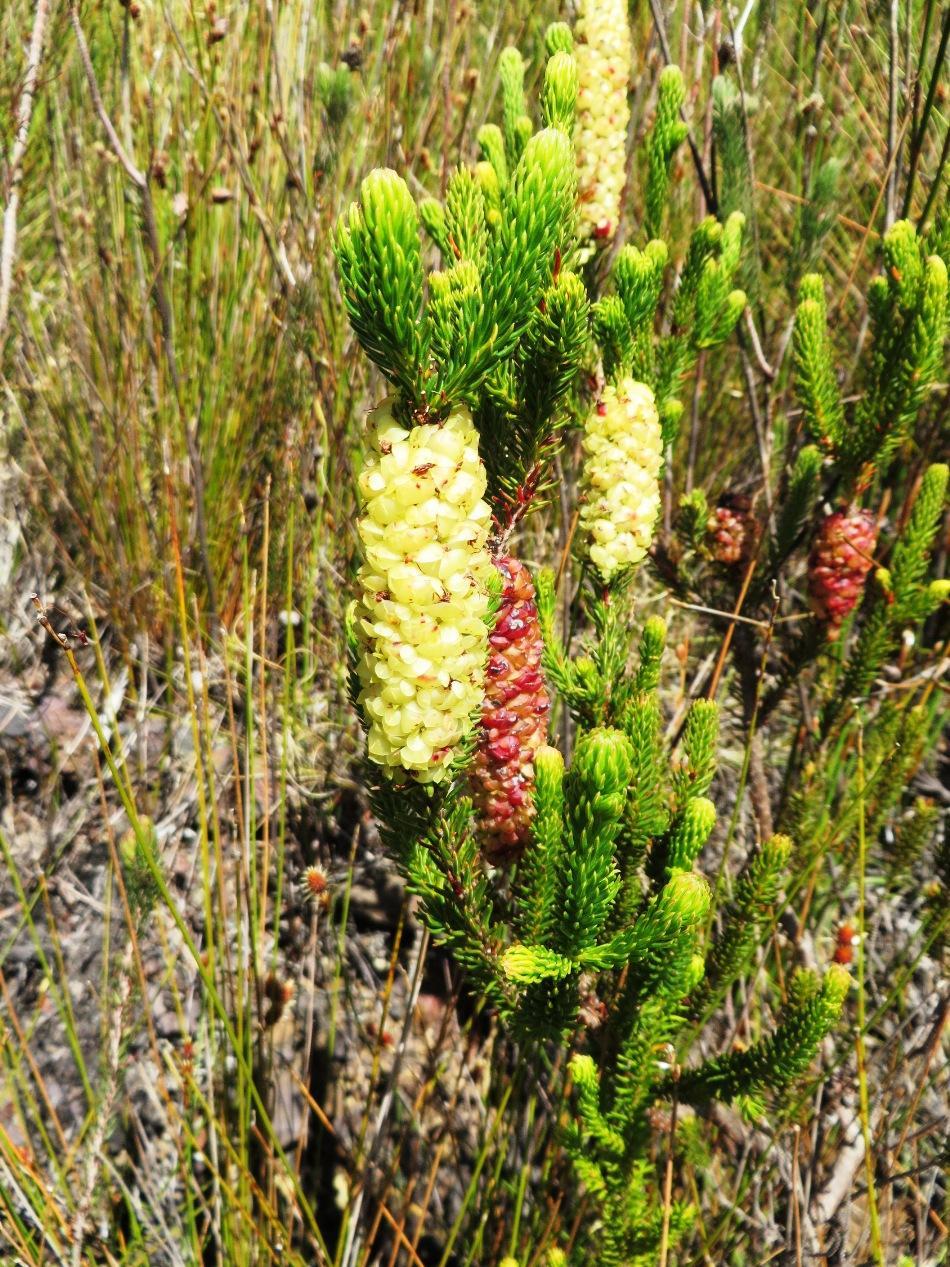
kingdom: Plantae
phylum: Tracheophyta
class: Magnoliopsida
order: Ericales
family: Ericaceae
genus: Erica
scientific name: Erica sessiliflora
